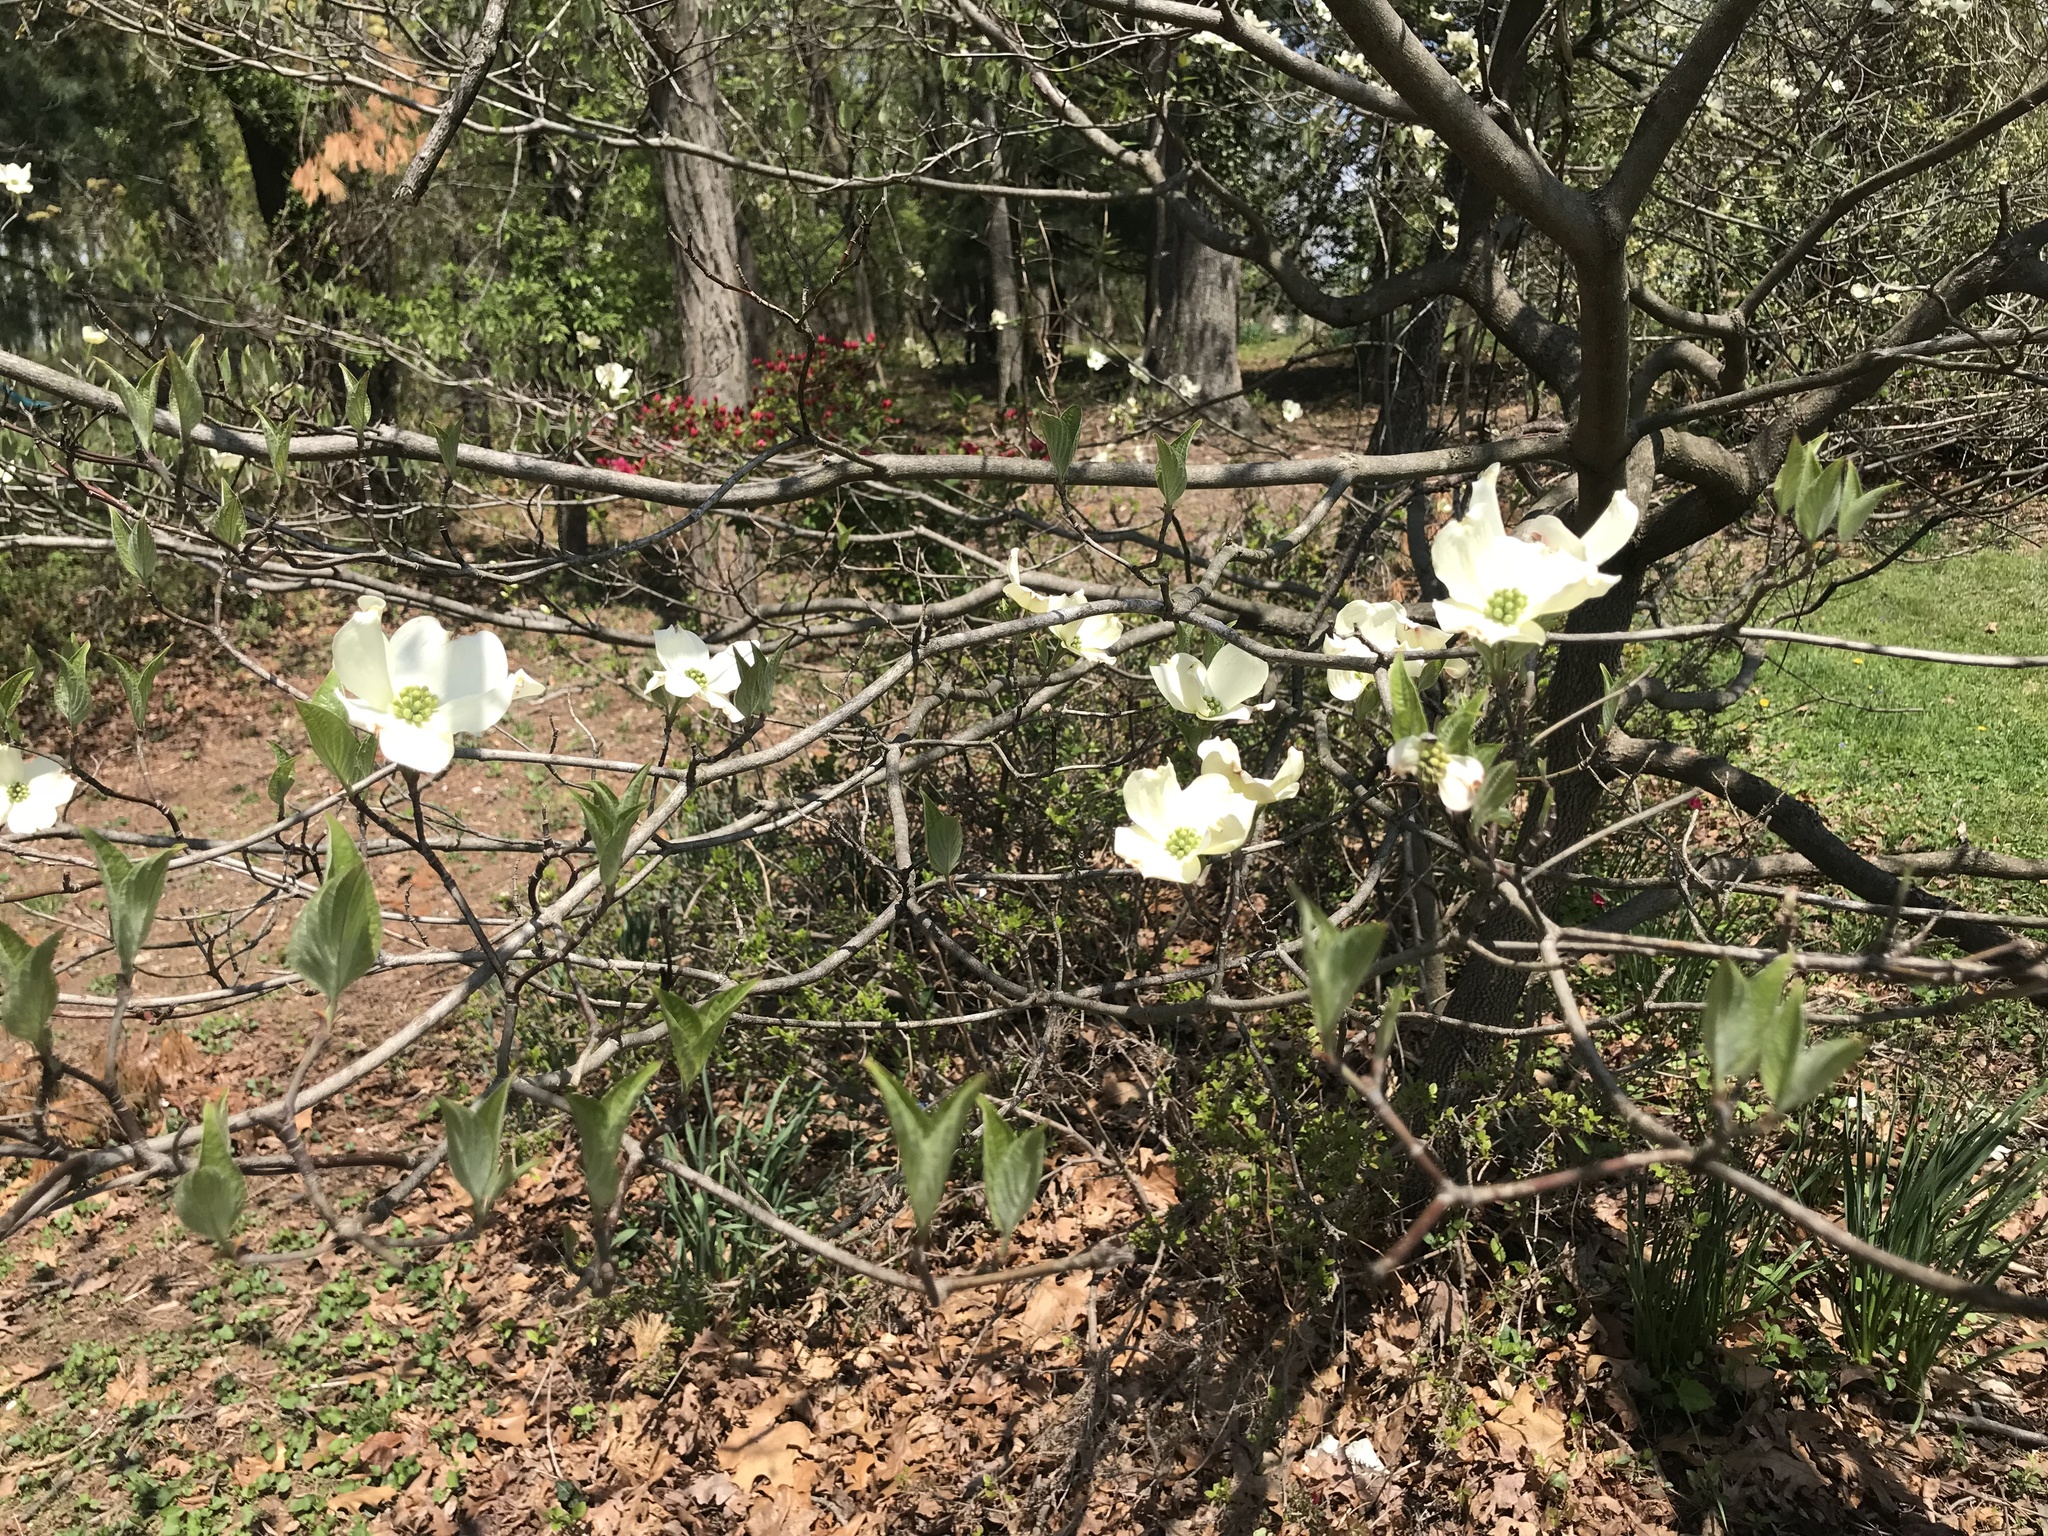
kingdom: Plantae
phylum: Tracheophyta
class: Magnoliopsida
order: Cornales
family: Cornaceae
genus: Cornus
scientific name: Cornus florida
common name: Flowering dogwood
